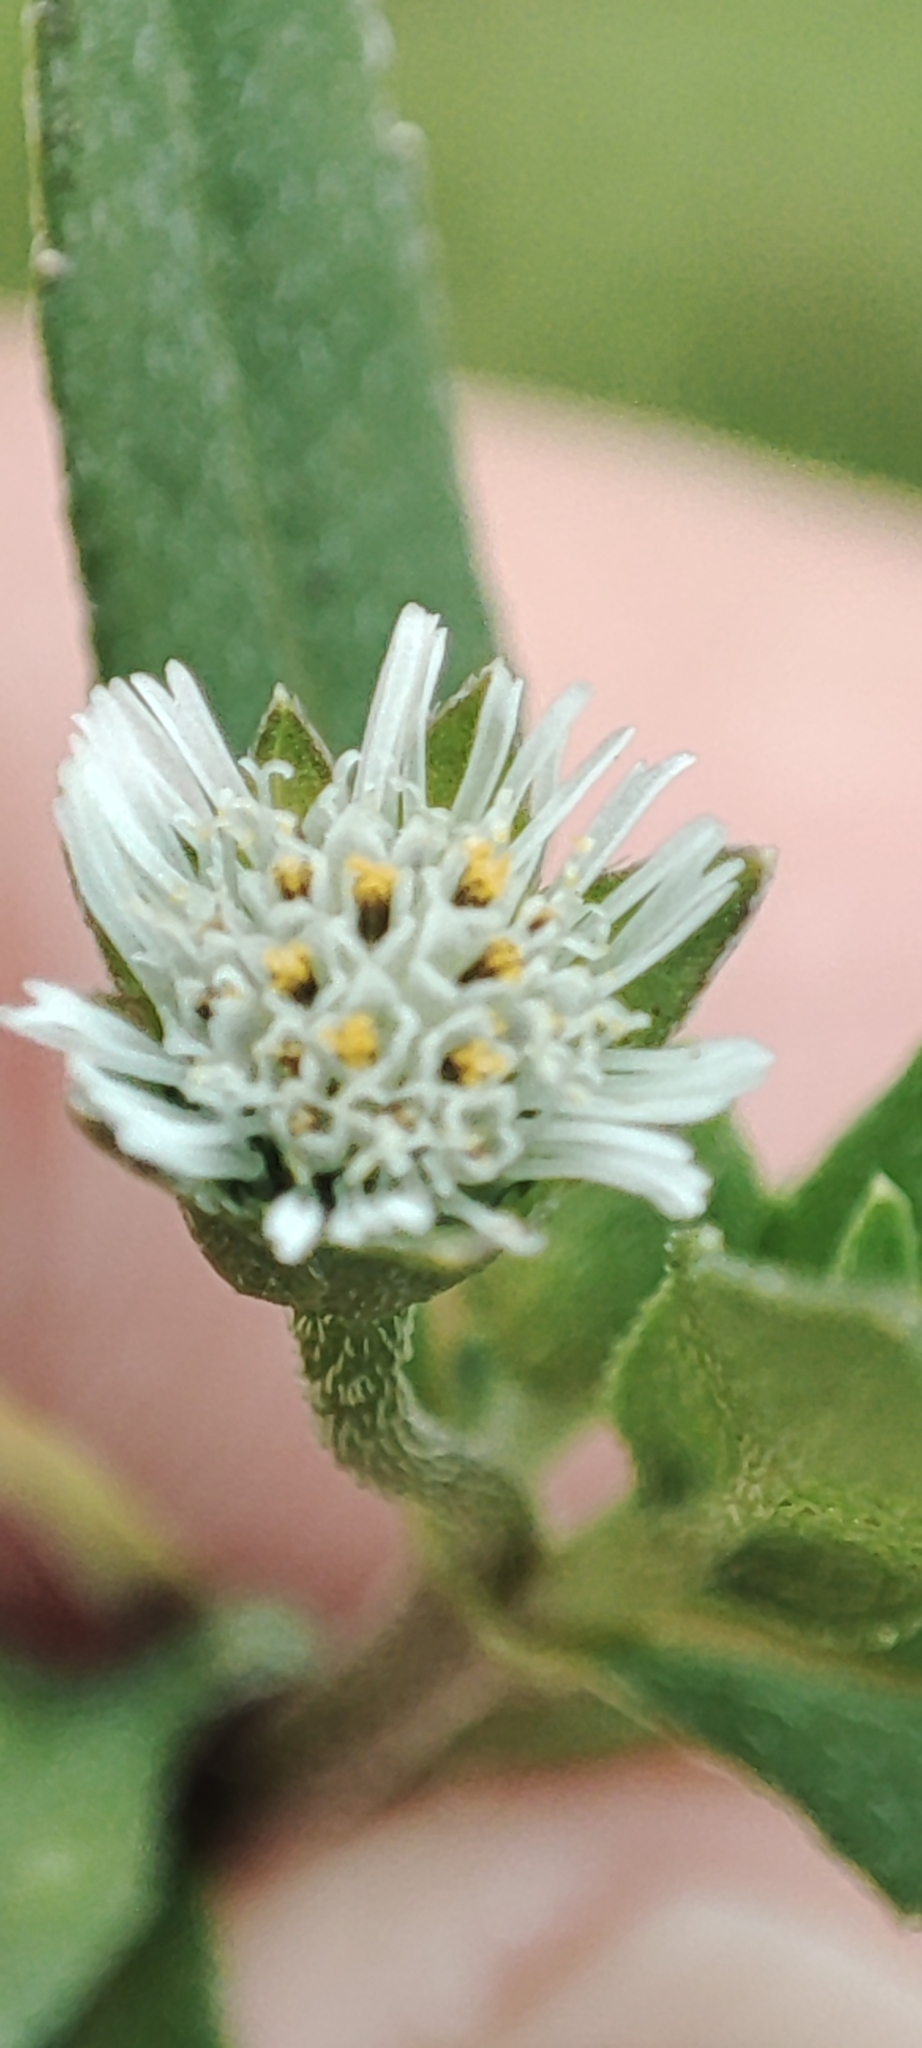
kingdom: Plantae
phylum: Tracheophyta
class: Magnoliopsida
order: Asterales
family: Asteraceae
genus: Eclipta
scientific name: Eclipta prostrata
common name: False daisy
